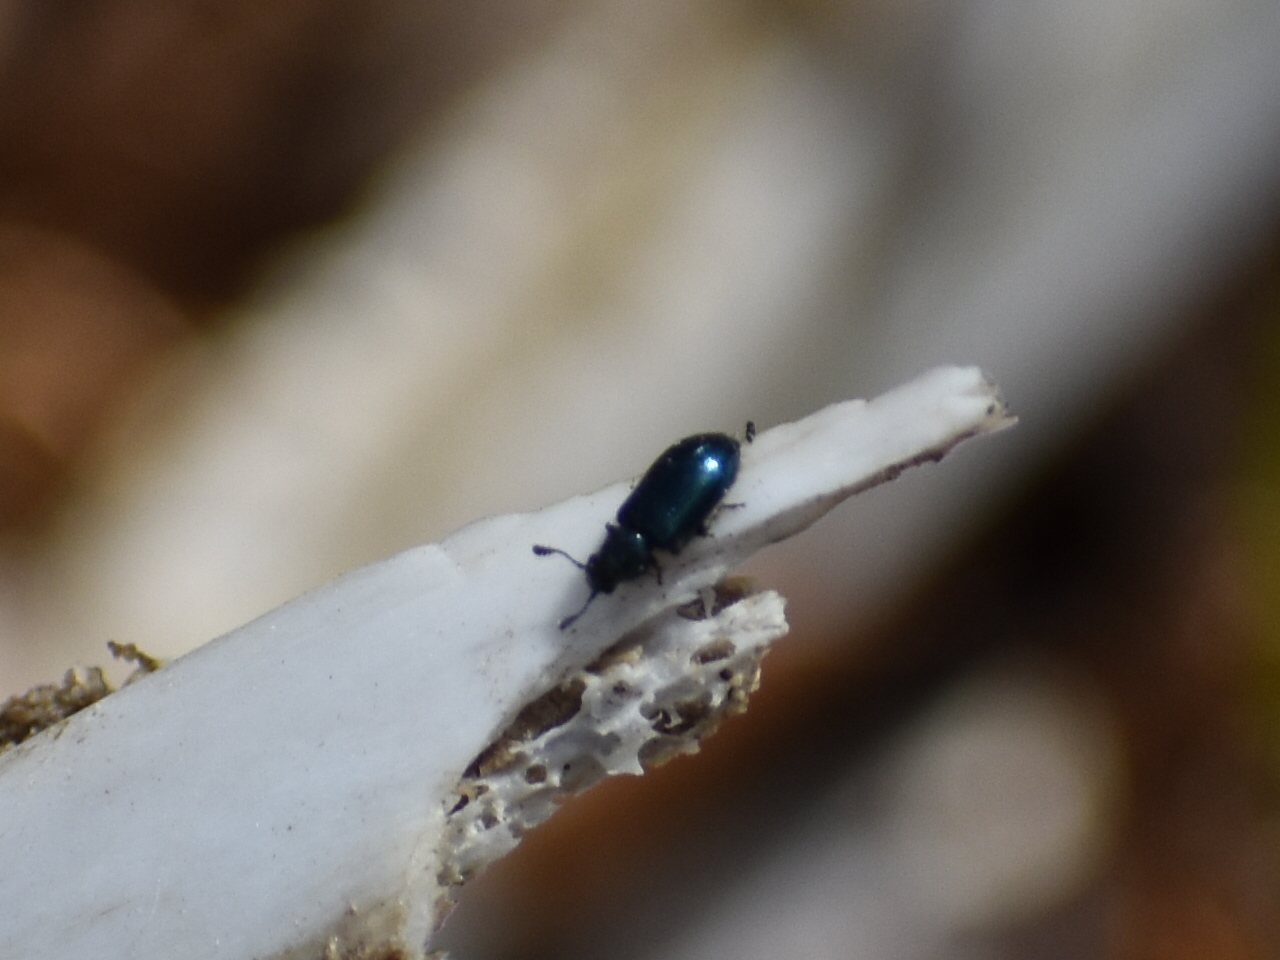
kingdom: Animalia
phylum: Arthropoda
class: Insecta
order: Coleoptera
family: Cleridae
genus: Necrobia
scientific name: Necrobia violacea
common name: Violet checkered beetle
